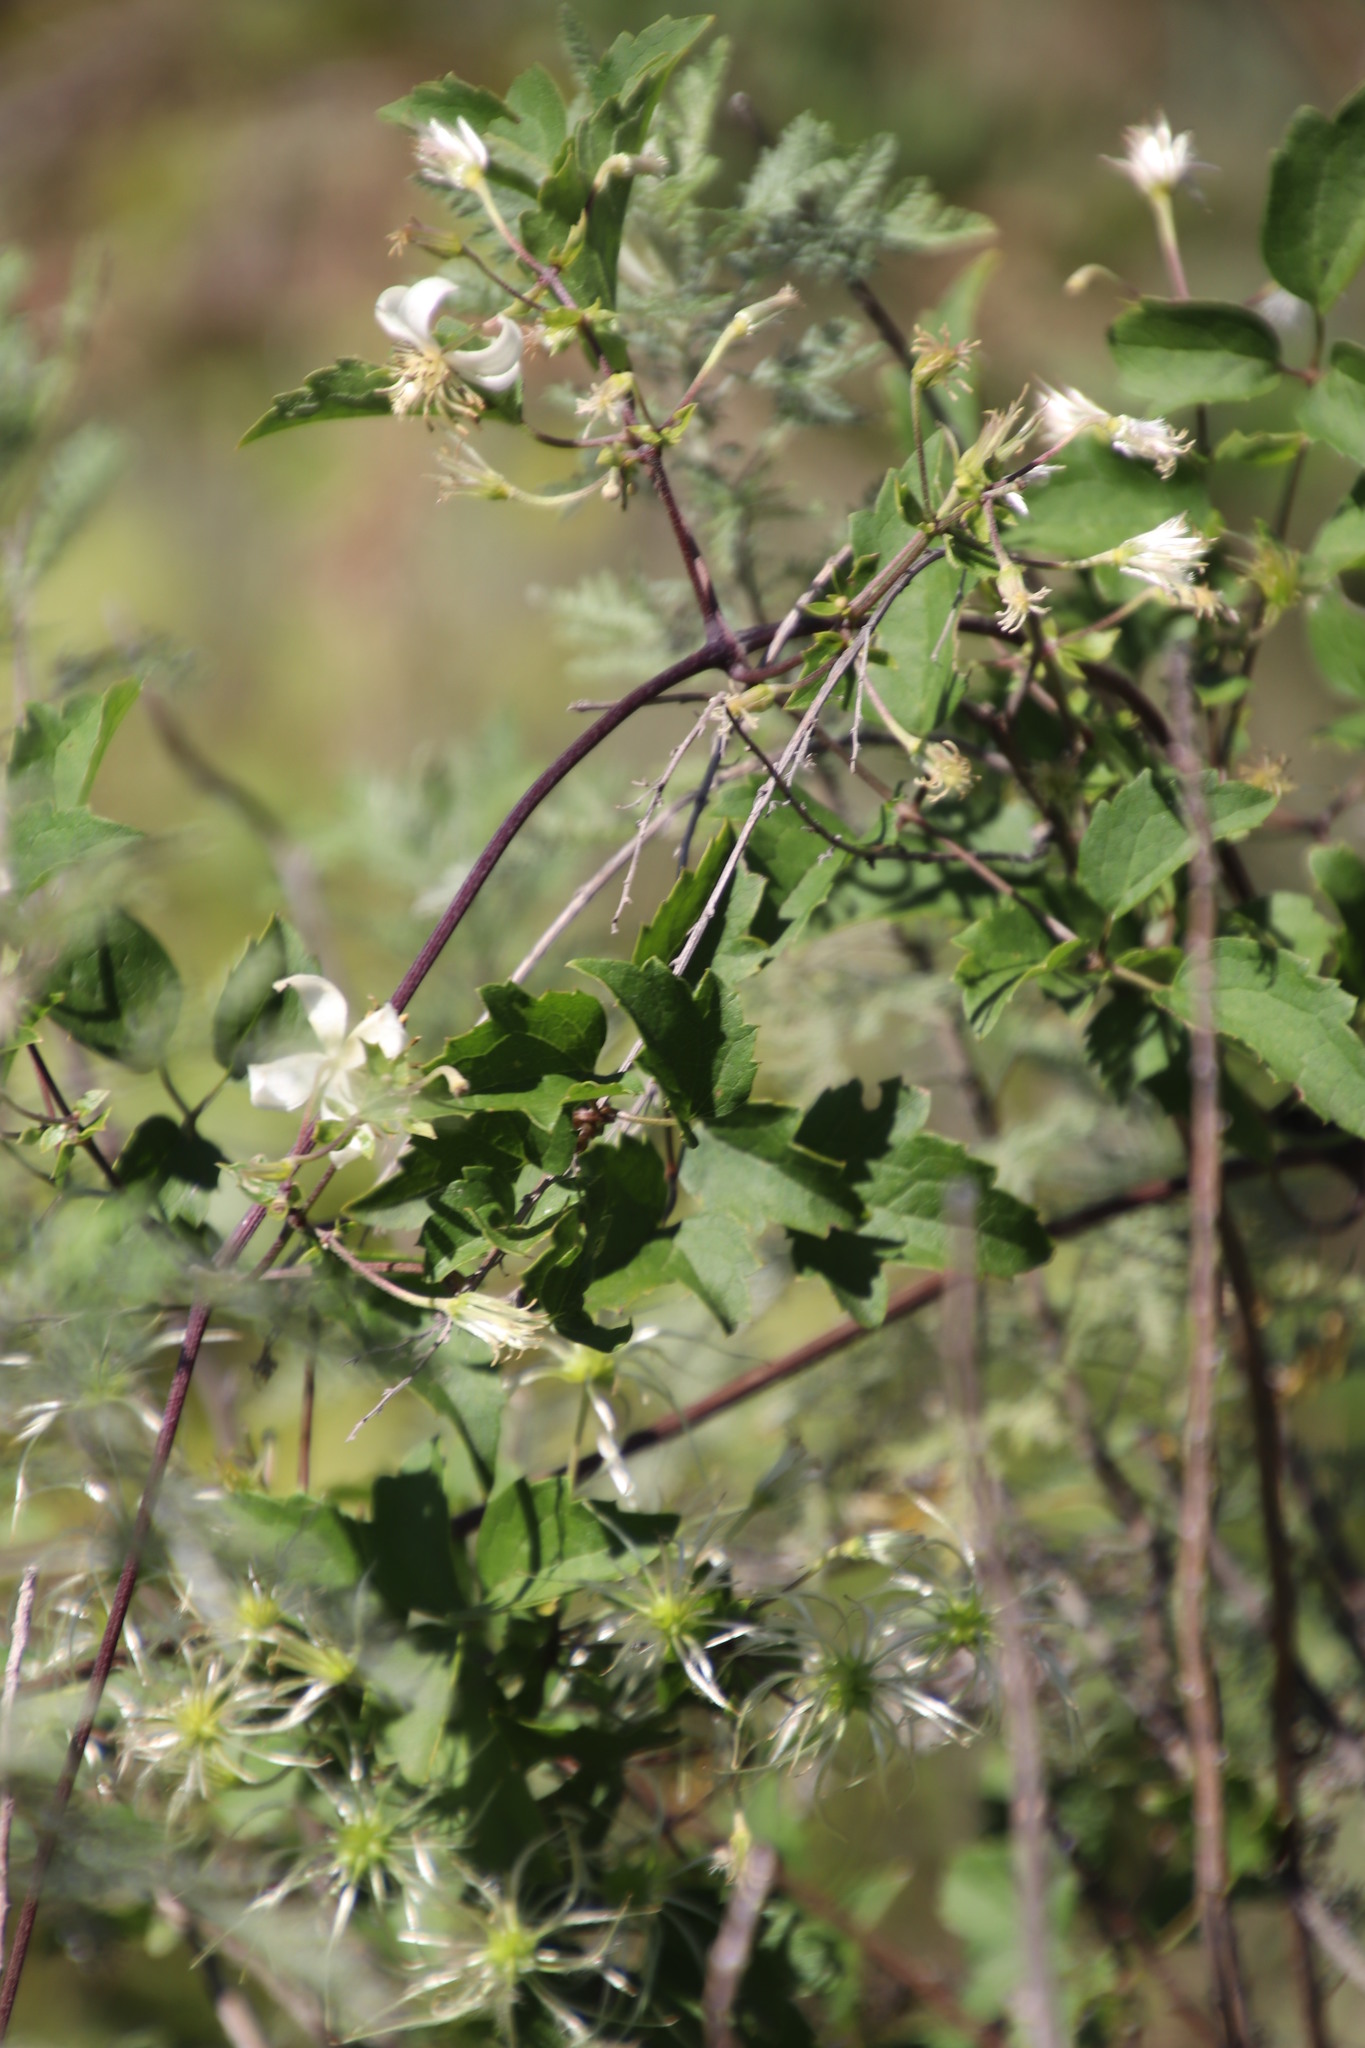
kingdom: Plantae
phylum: Tracheophyta
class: Magnoliopsida
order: Ranunculales
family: Ranunculaceae
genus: Clematis
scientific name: Clematis brachiata
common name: Traveler's-joy
